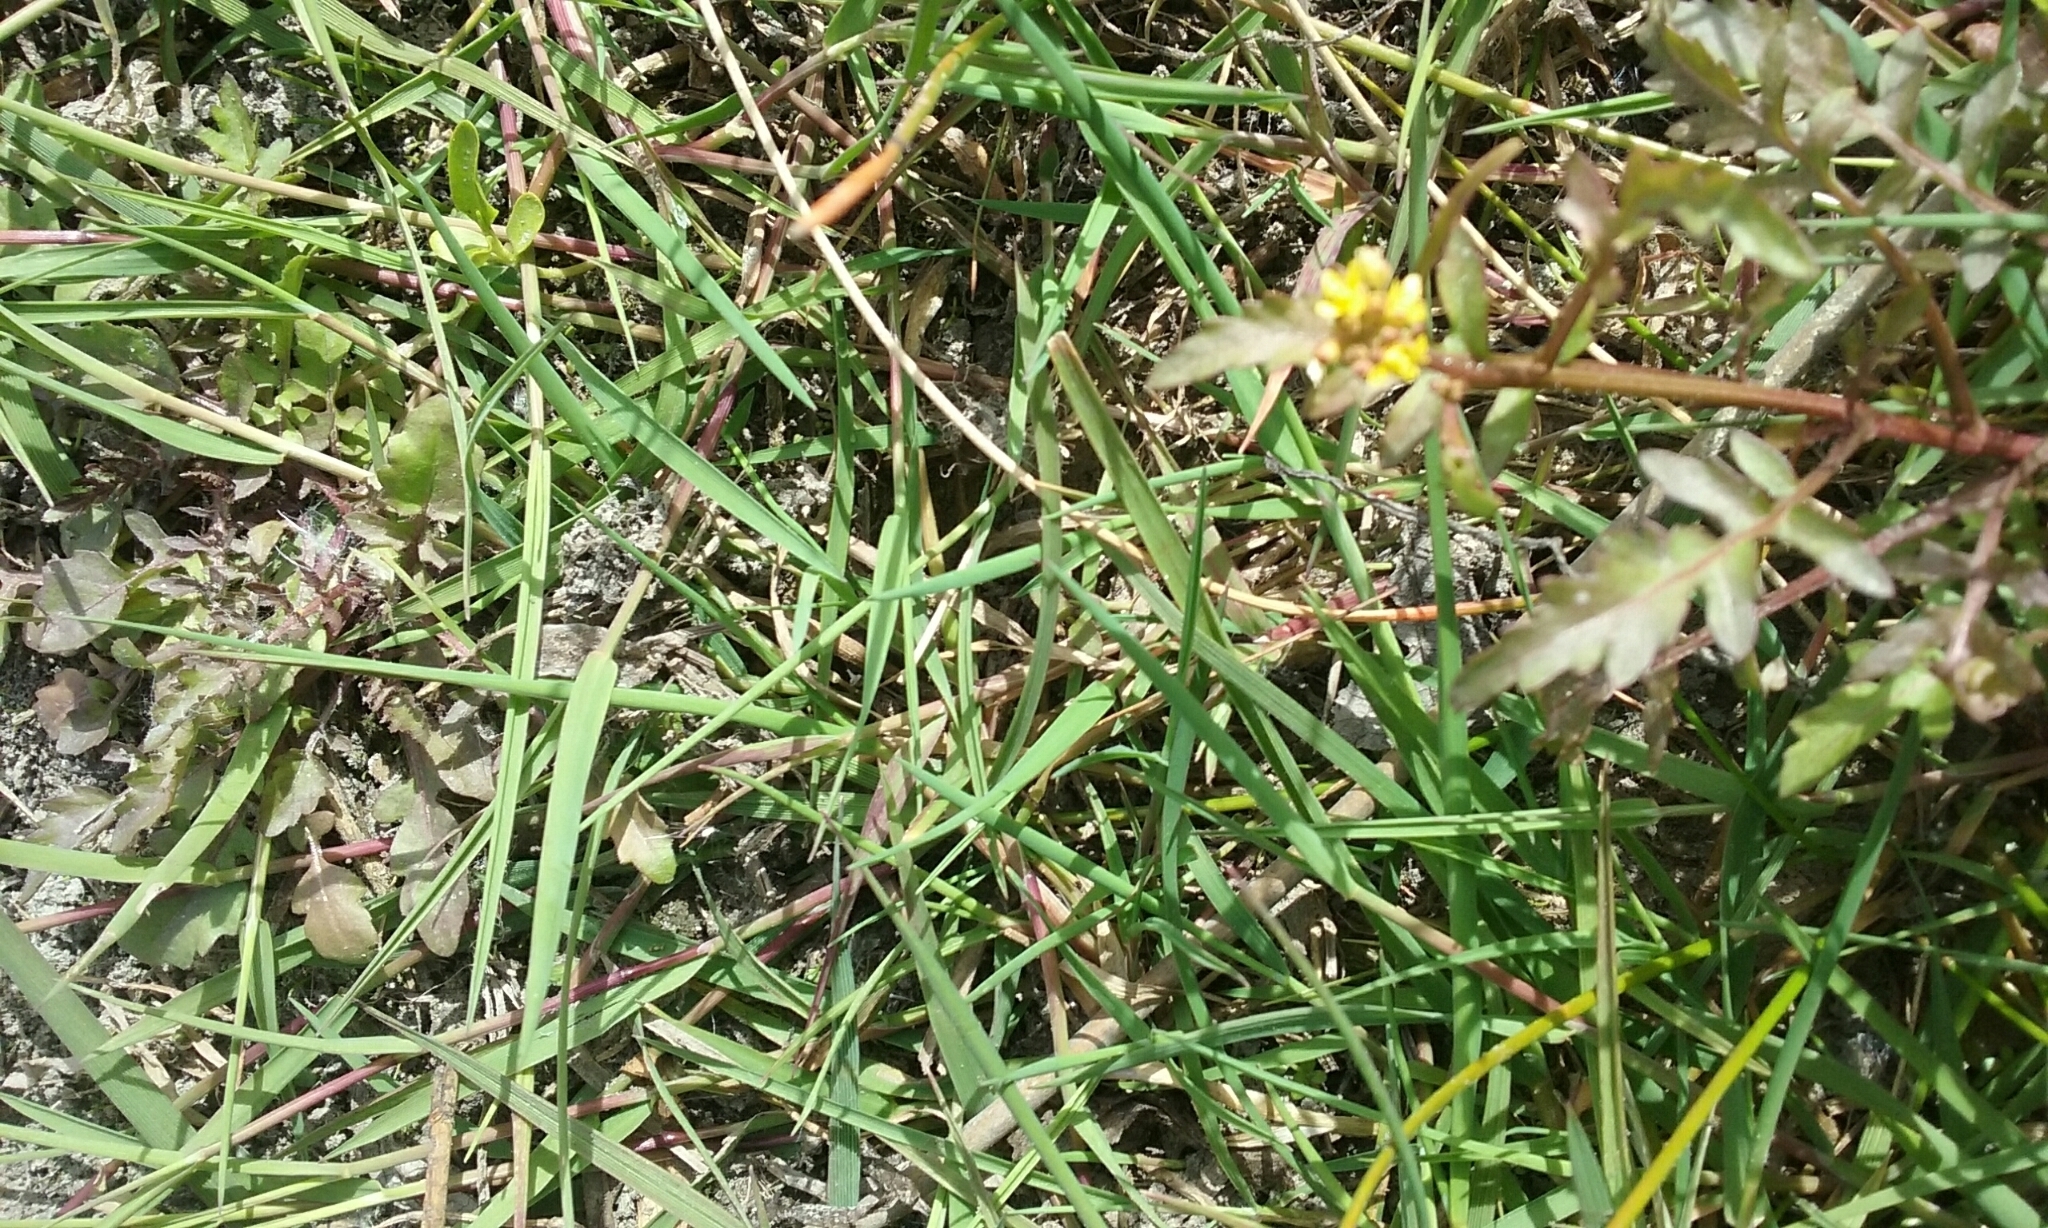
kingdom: Plantae
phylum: Tracheophyta
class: Magnoliopsida
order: Brassicales
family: Brassicaceae
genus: Rorippa
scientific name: Rorippa palustris
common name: Marsh yellow-cress
